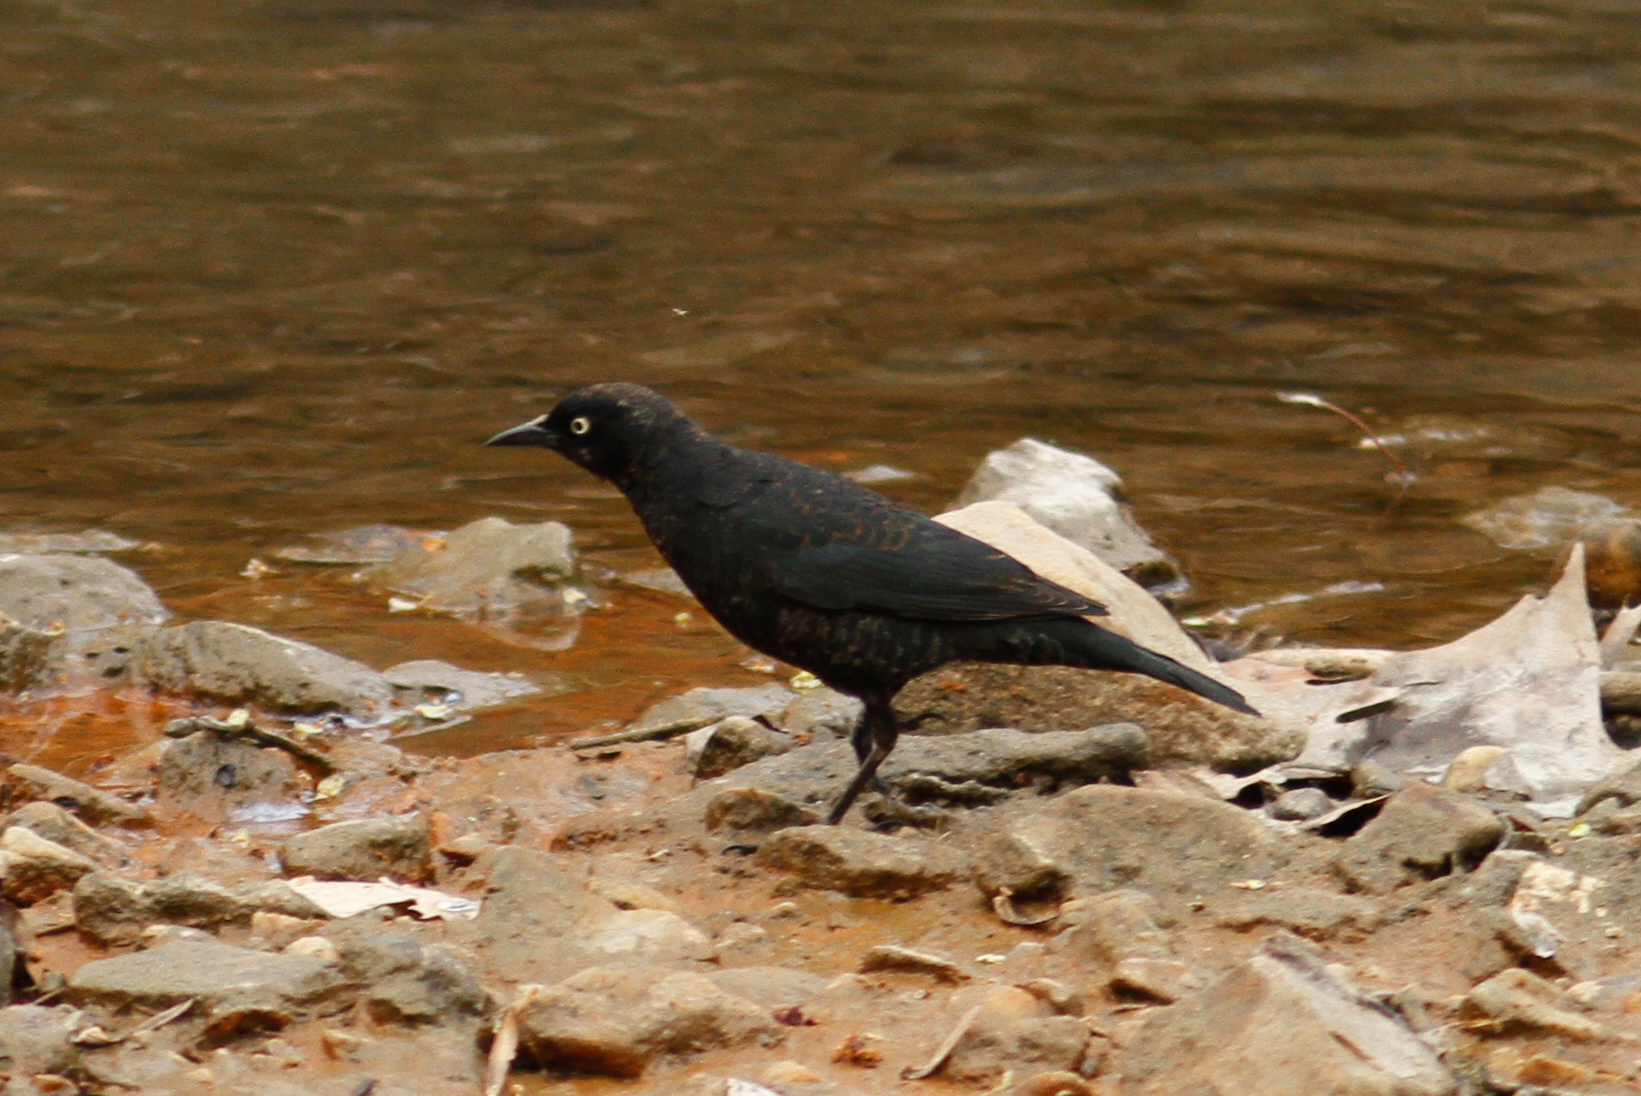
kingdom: Animalia
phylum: Chordata
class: Aves
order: Passeriformes
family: Icteridae
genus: Quiscalus
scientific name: Quiscalus quiscula
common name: Common grackle
